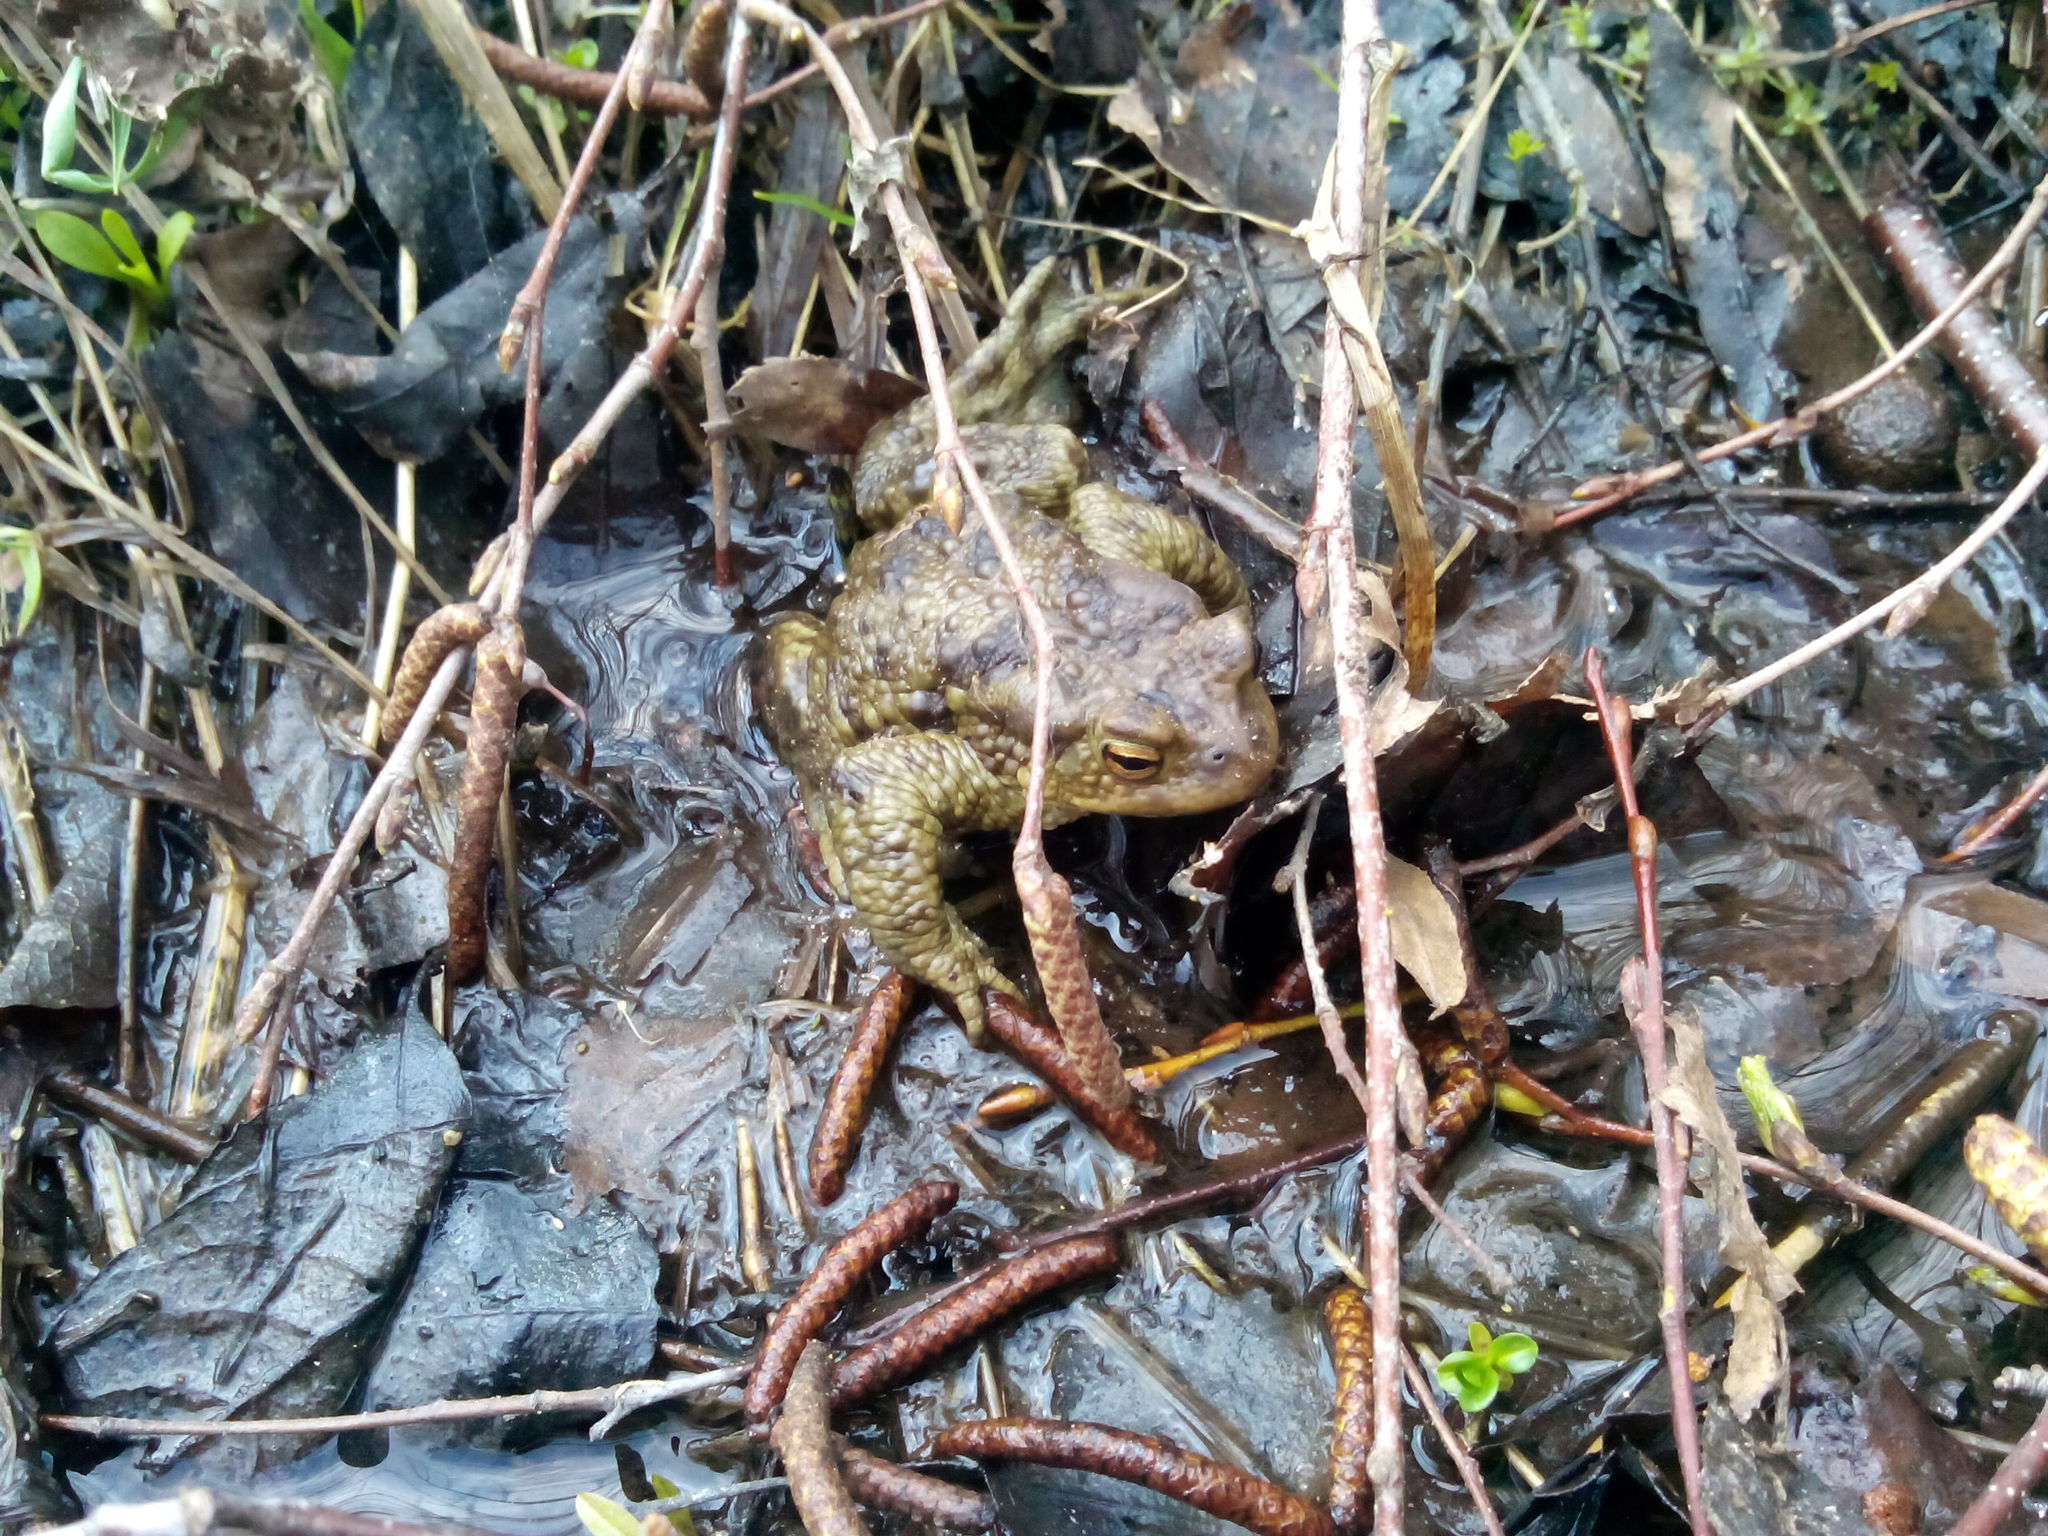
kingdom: Animalia
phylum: Chordata
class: Amphibia
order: Anura
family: Bufonidae
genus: Bufo
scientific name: Bufo bufo
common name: Common toad
